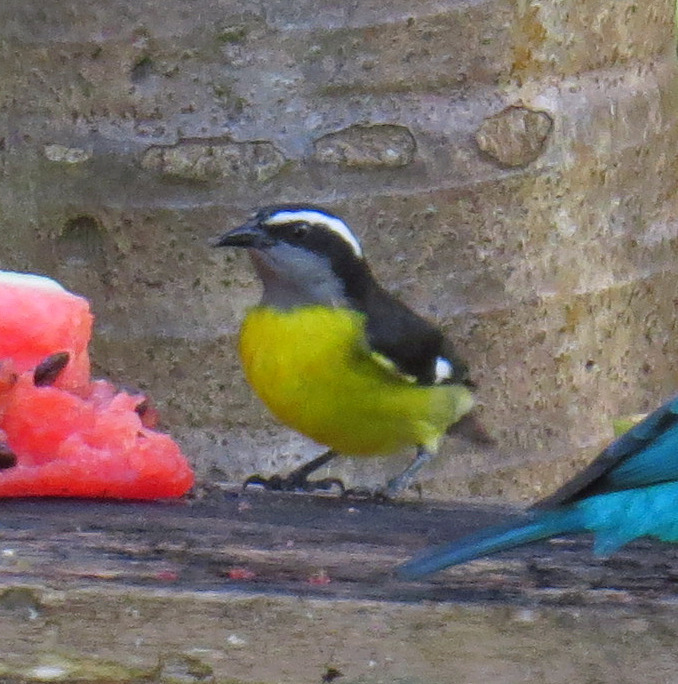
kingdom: Animalia
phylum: Chordata
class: Aves
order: Passeriformes
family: Thraupidae
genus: Coereba
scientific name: Coereba flaveola
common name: Bananaquit
